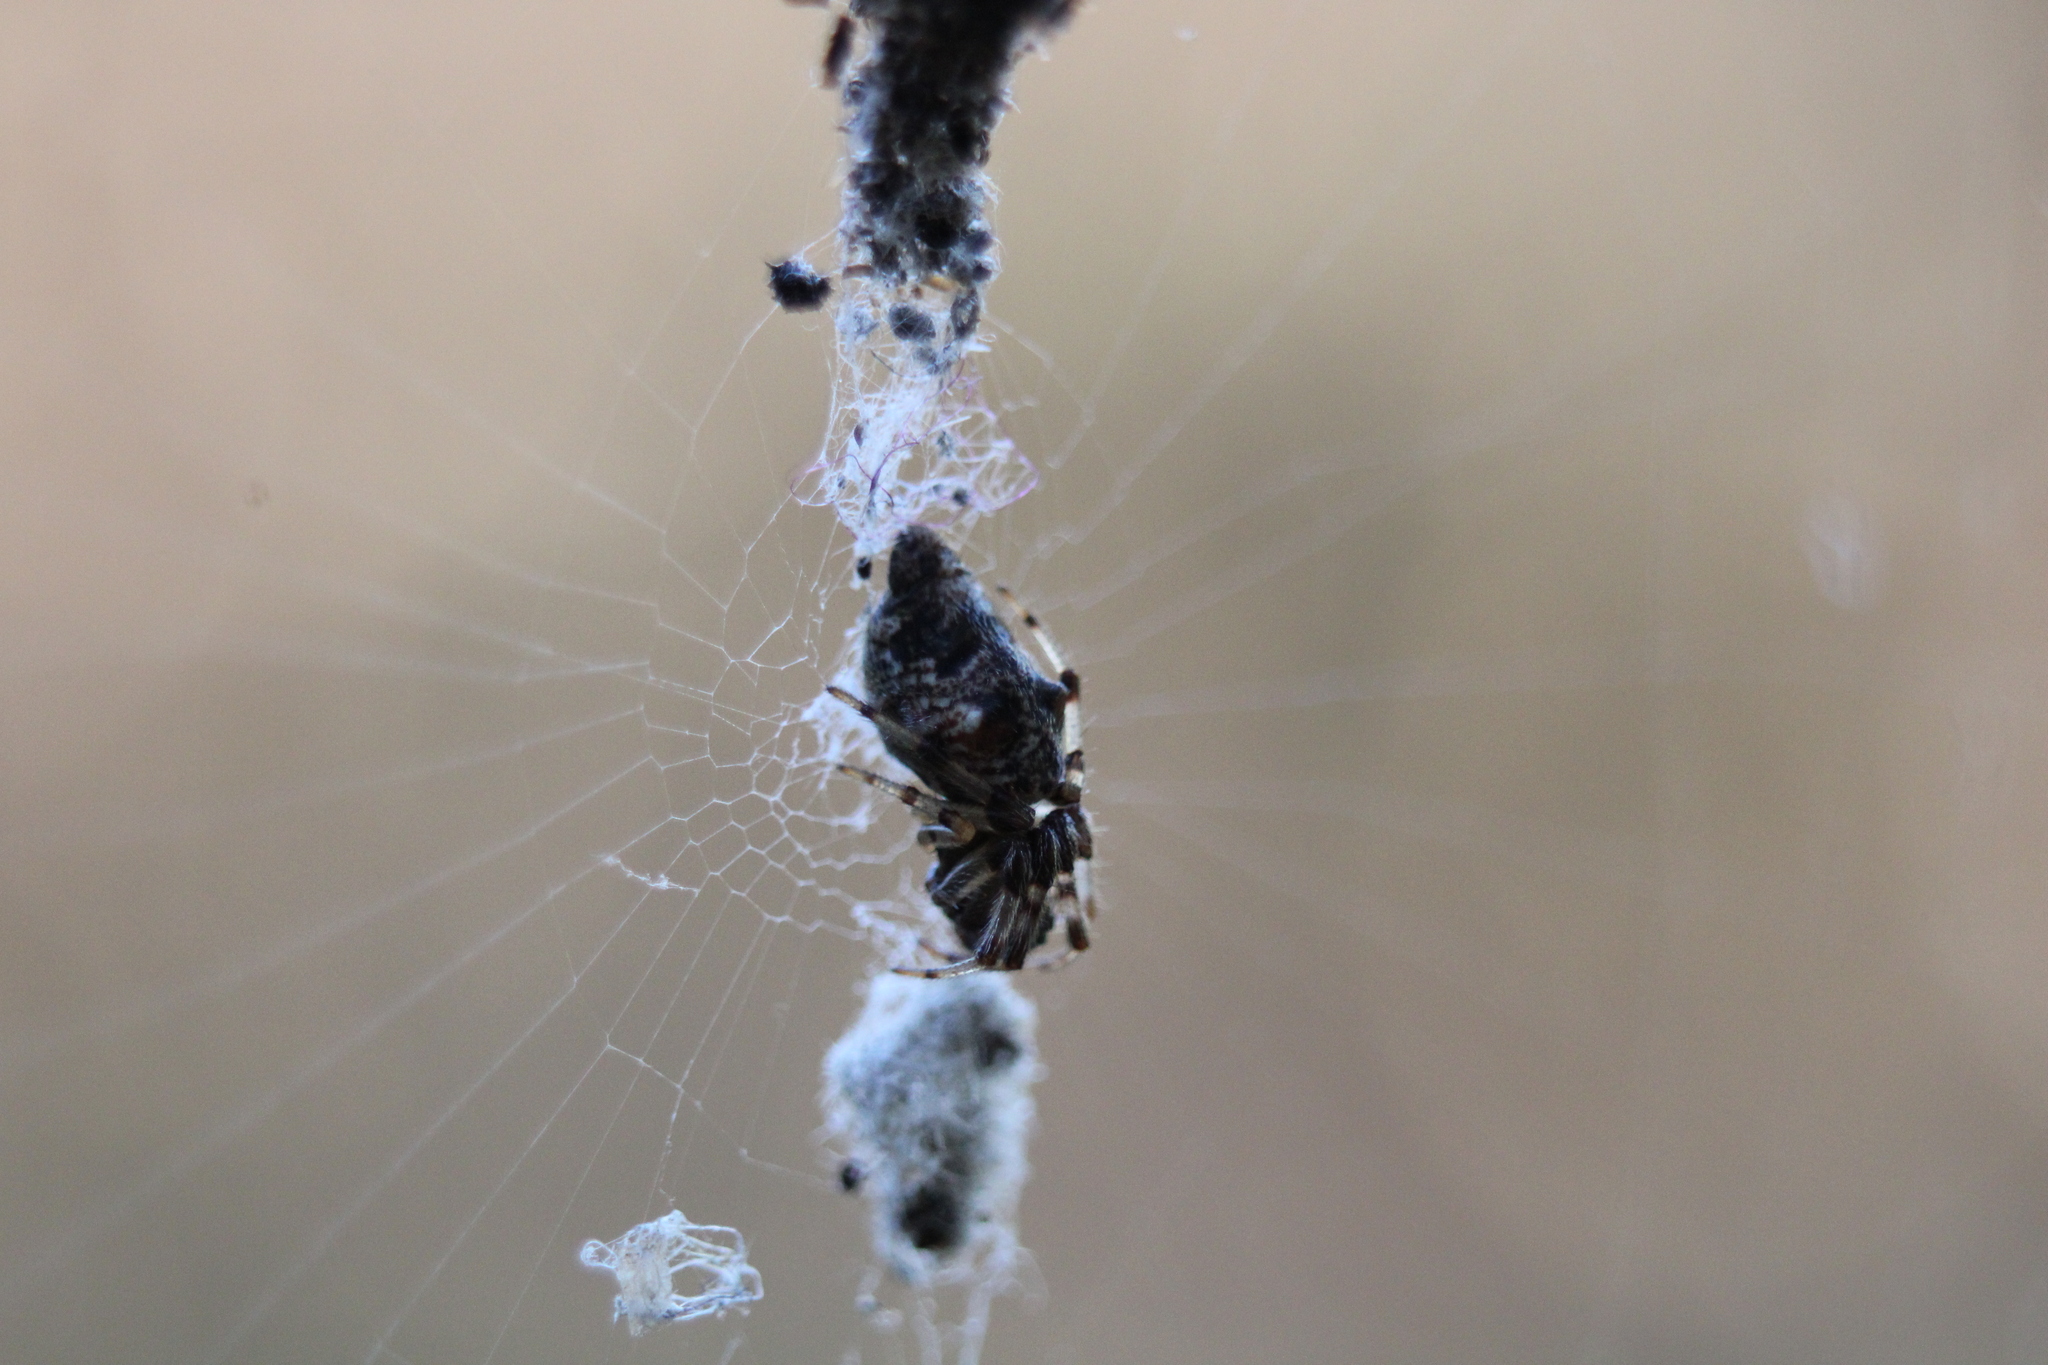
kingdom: Animalia
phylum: Arthropoda
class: Arachnida
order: Araneae
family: Araneidae
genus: Cyclosa
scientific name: Cyclosa turbinata
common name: Orb weavers
